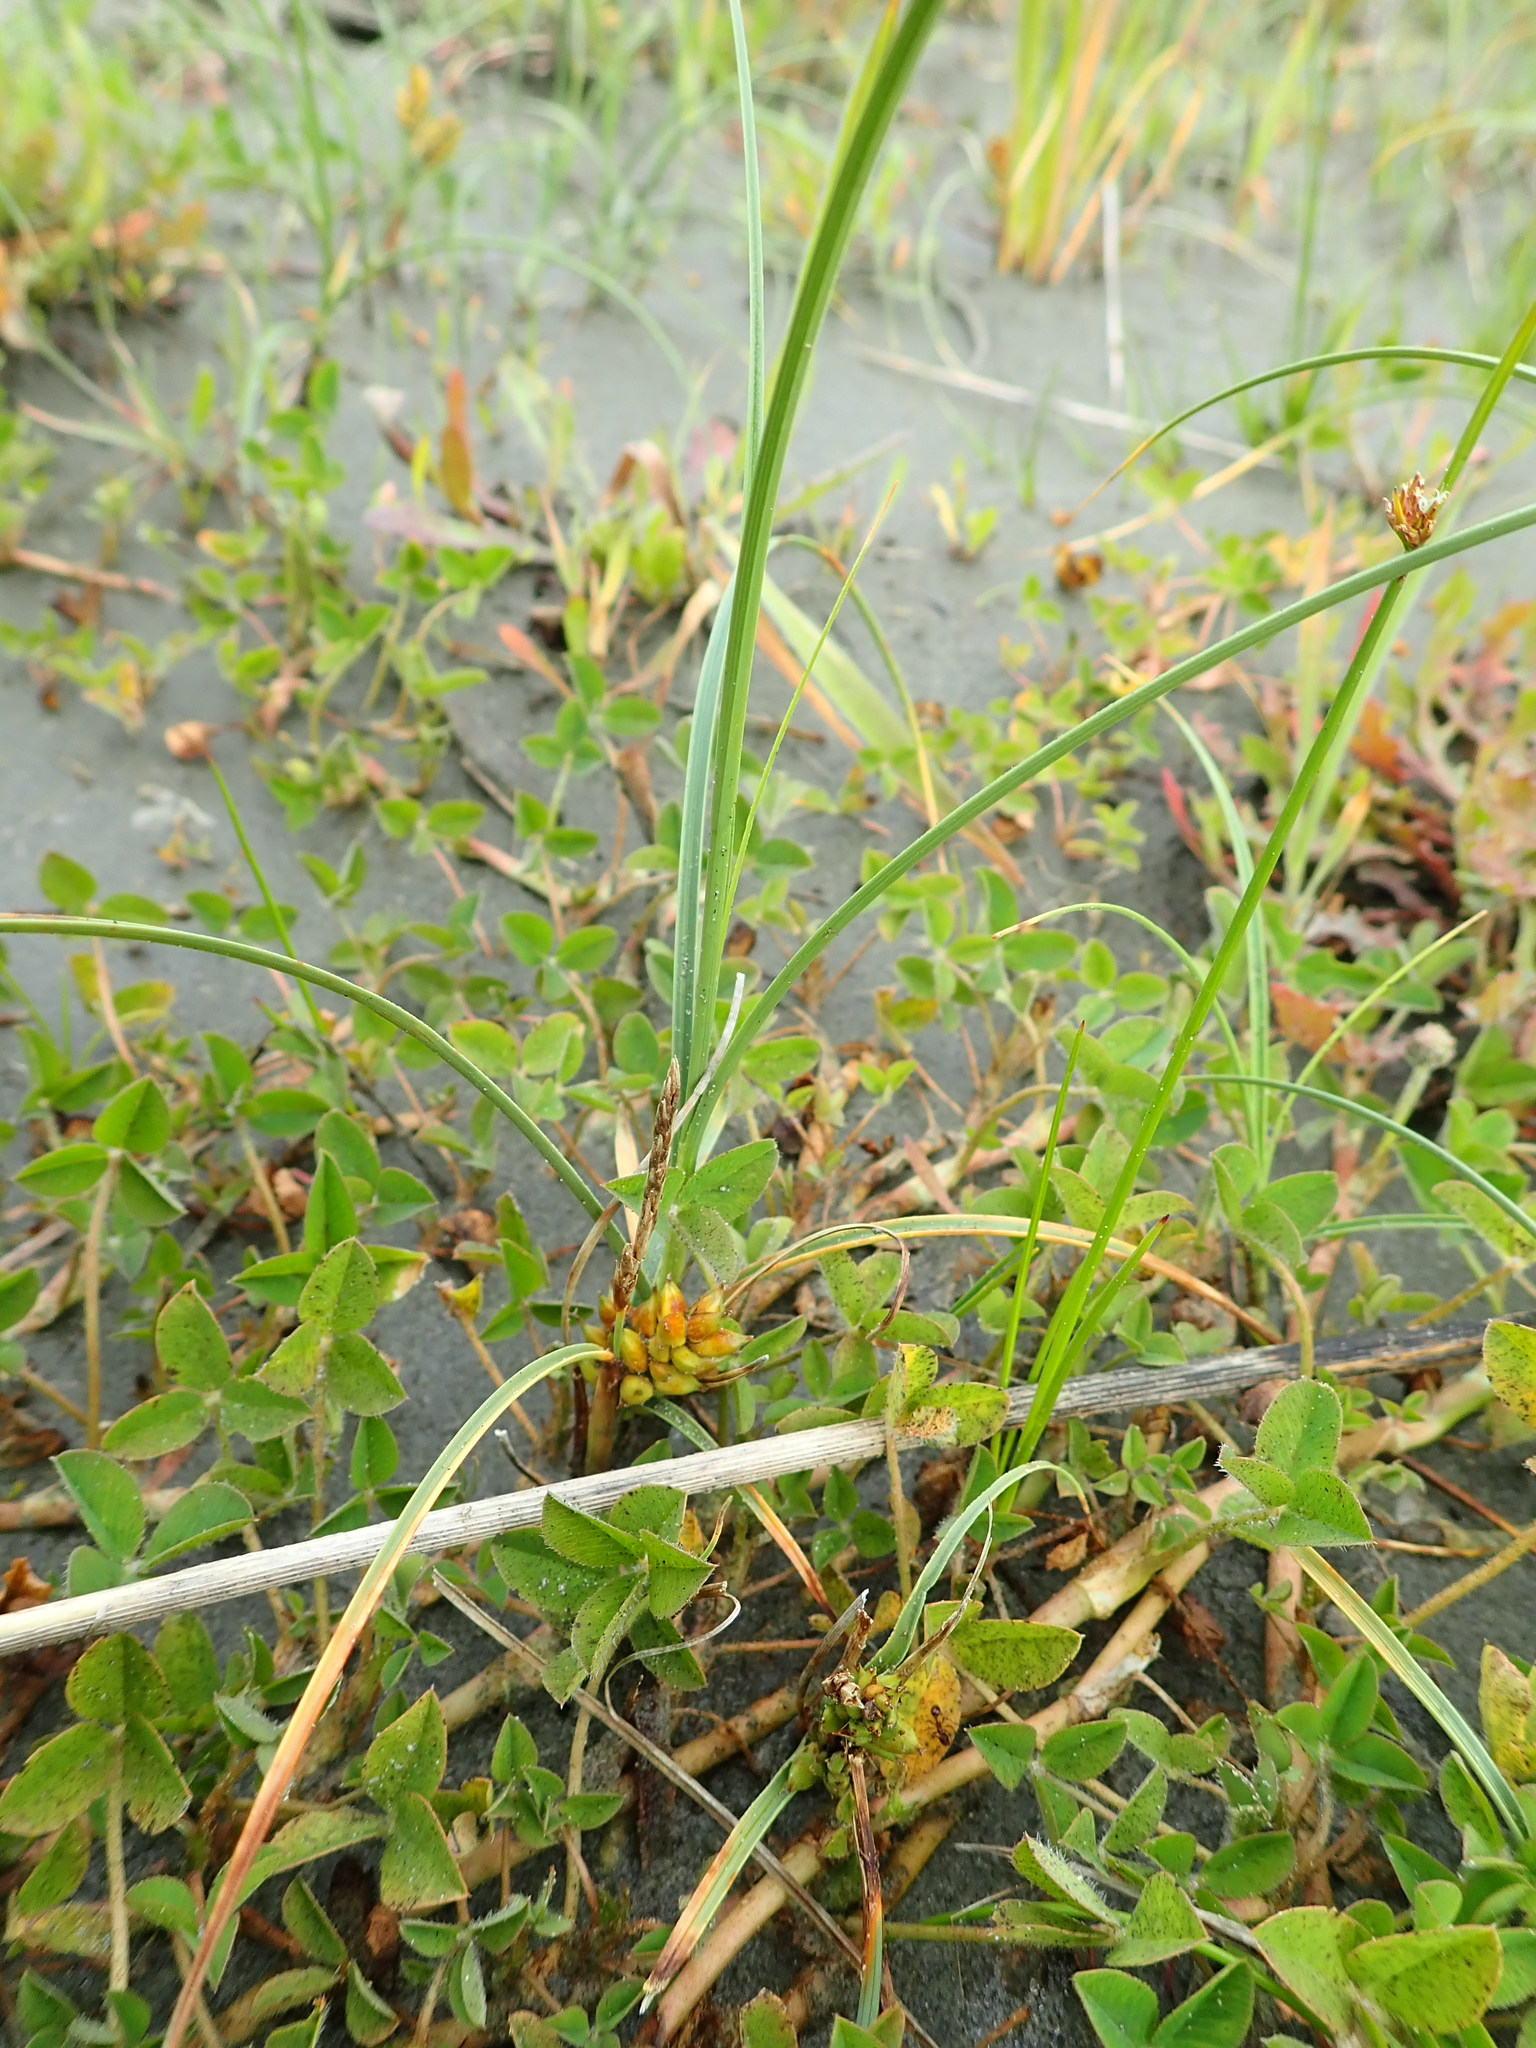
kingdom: Plantae
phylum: Tracheophyta
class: Liliopsida
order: Poales
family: Cyperaceae
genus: Carex
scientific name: Carex pumila
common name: Dwarf sedge
